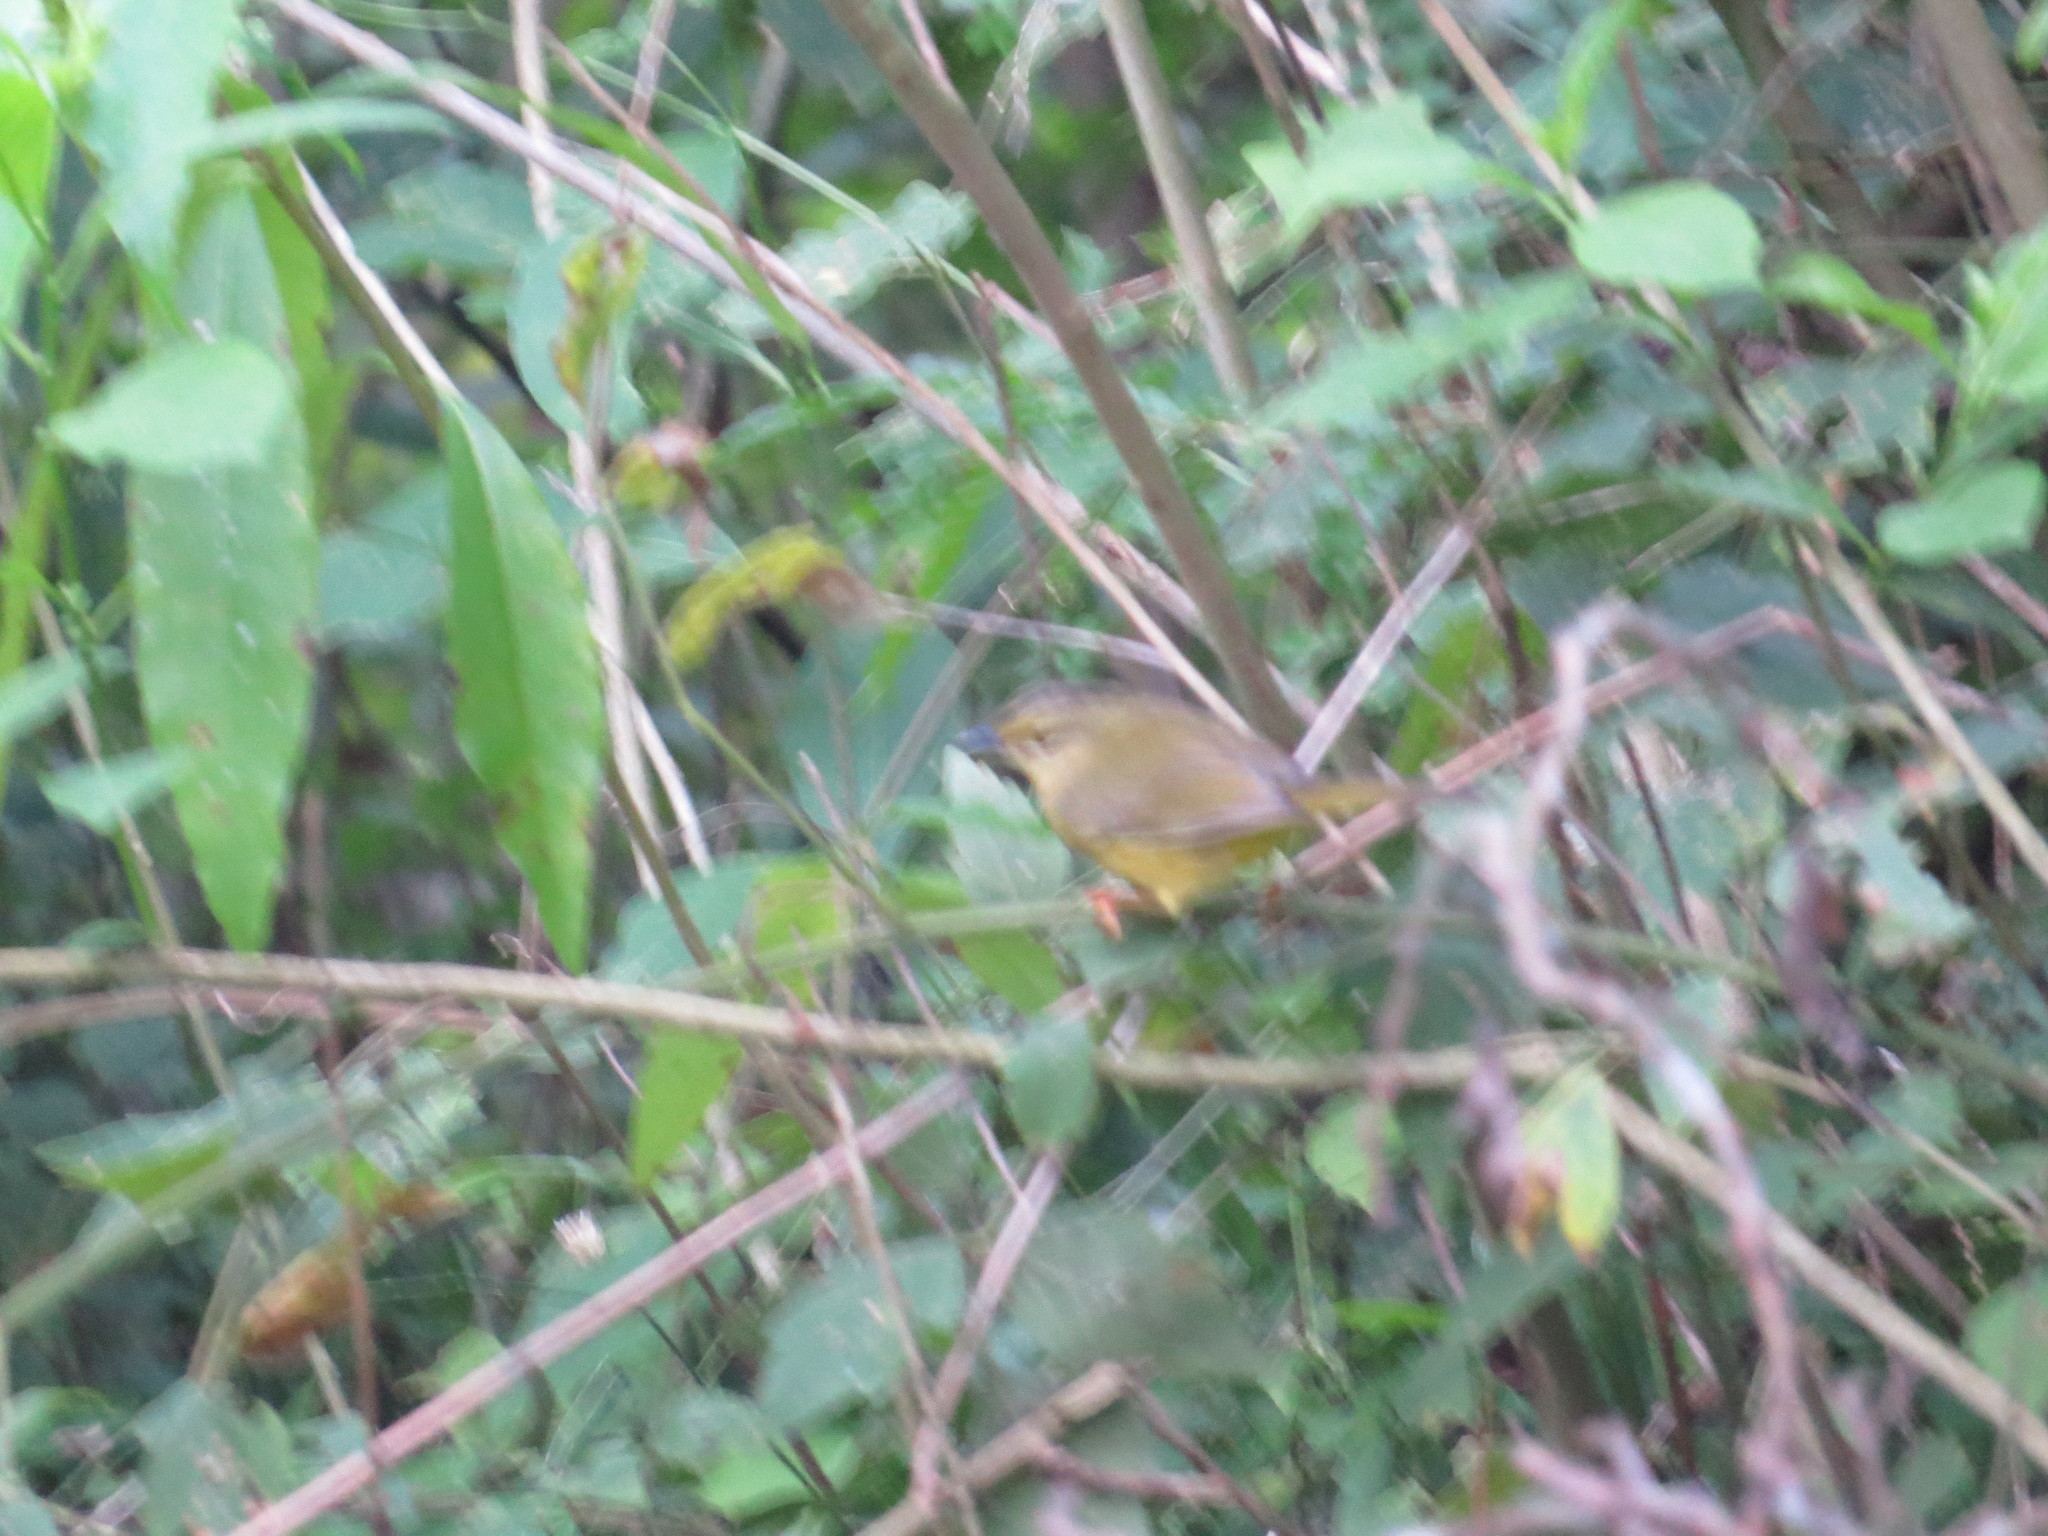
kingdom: Animalia
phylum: Chordata
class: Aves
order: Passeriformes
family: Parulidae
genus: Myiothlypis
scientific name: Myiothlypis bivittata
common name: Two-banded warbler
